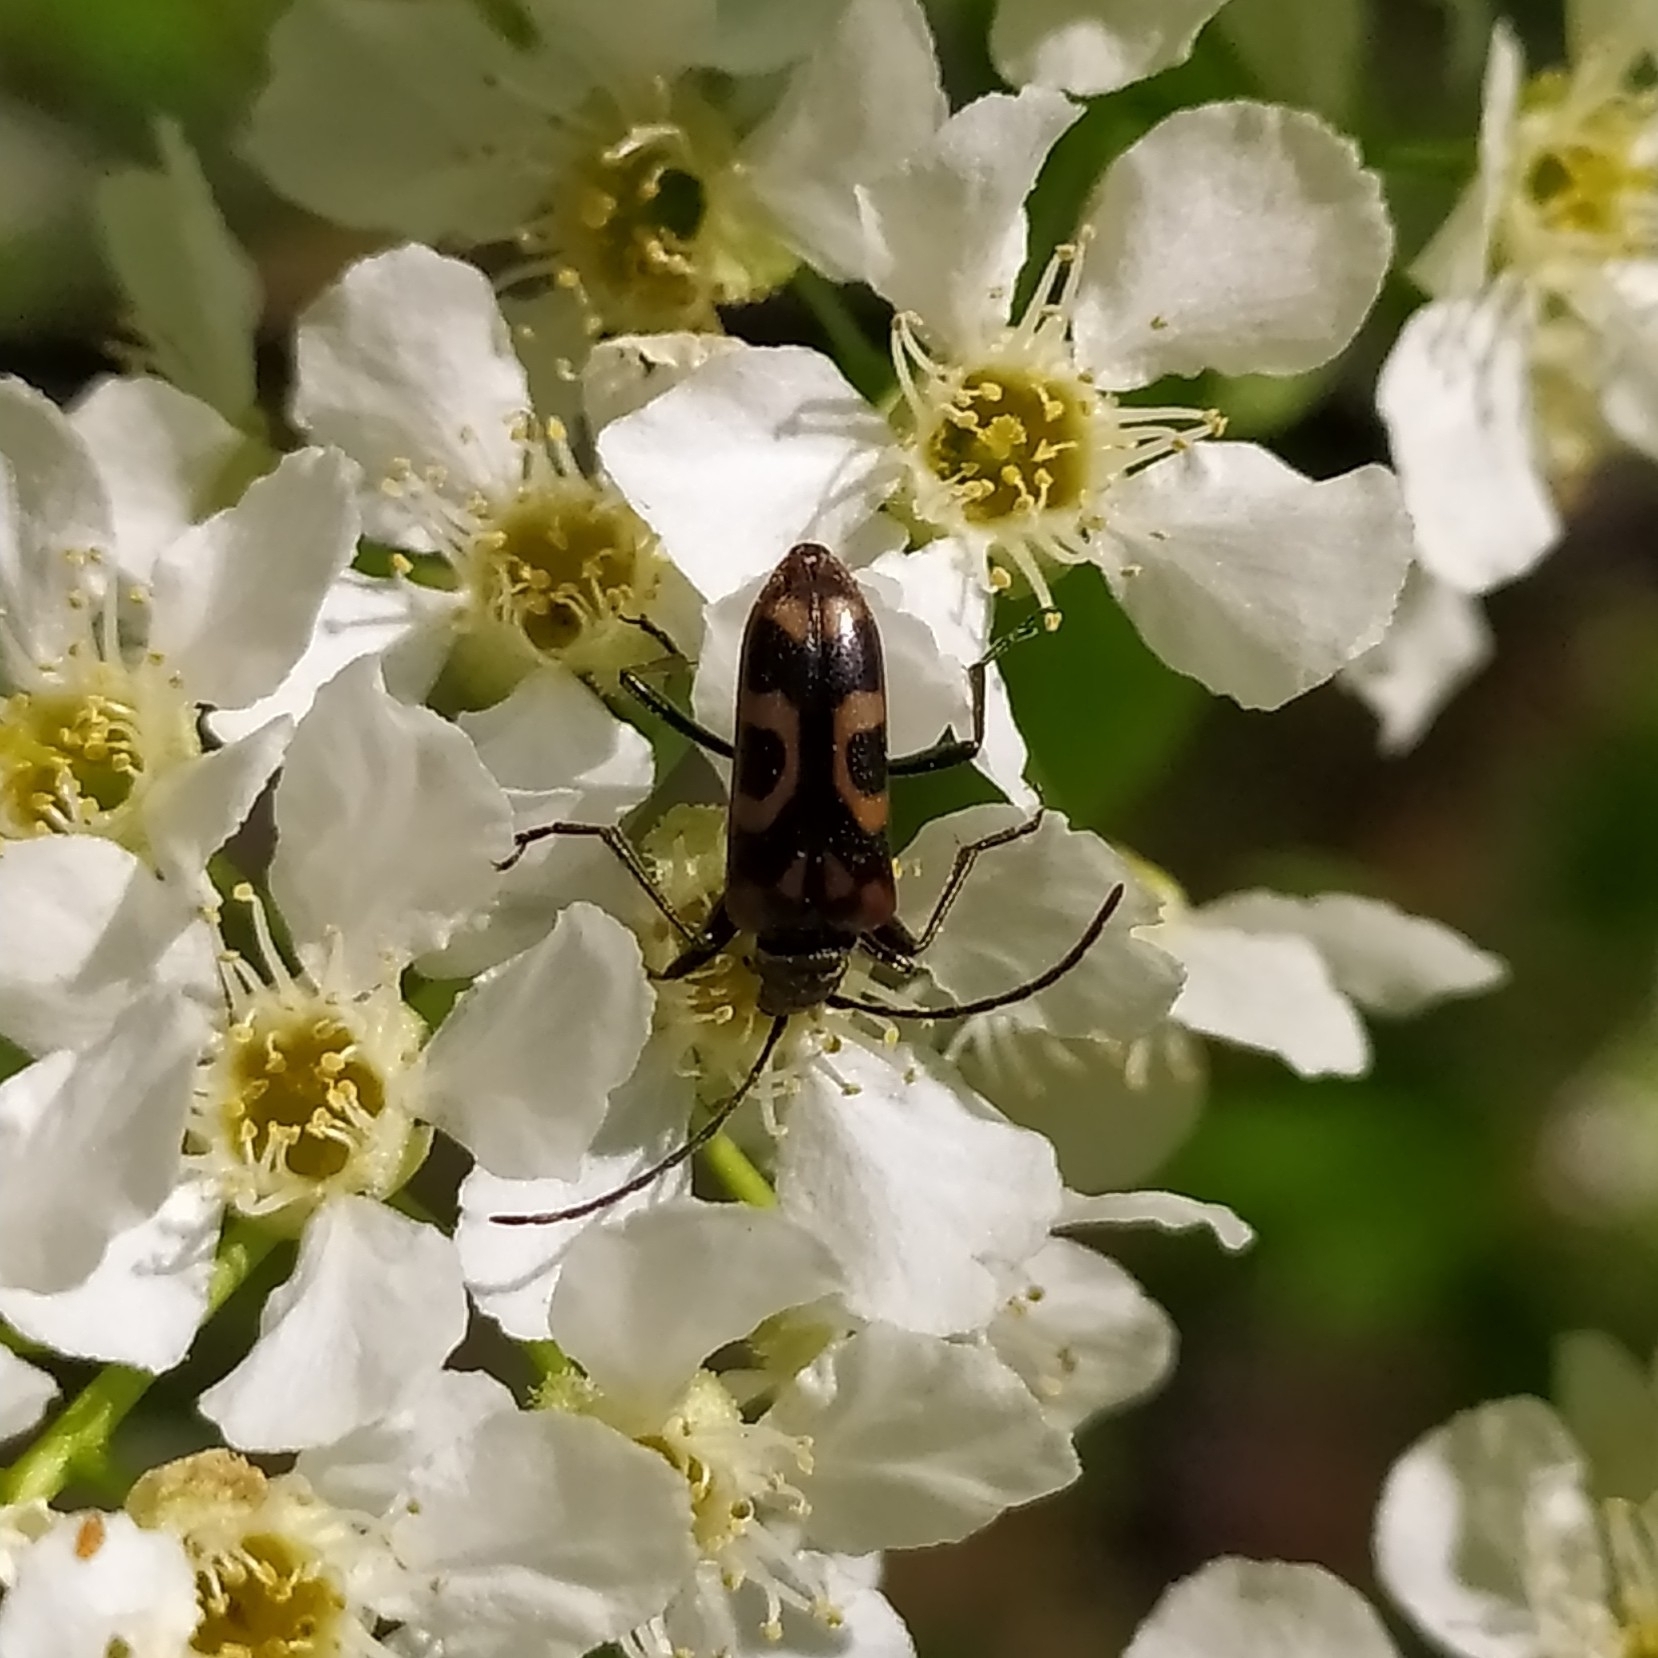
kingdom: Animalia
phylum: Arthropoda
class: Insecta
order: Coleoptera
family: Cerambycidae
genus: Evodinus
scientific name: Evodinus borealis
